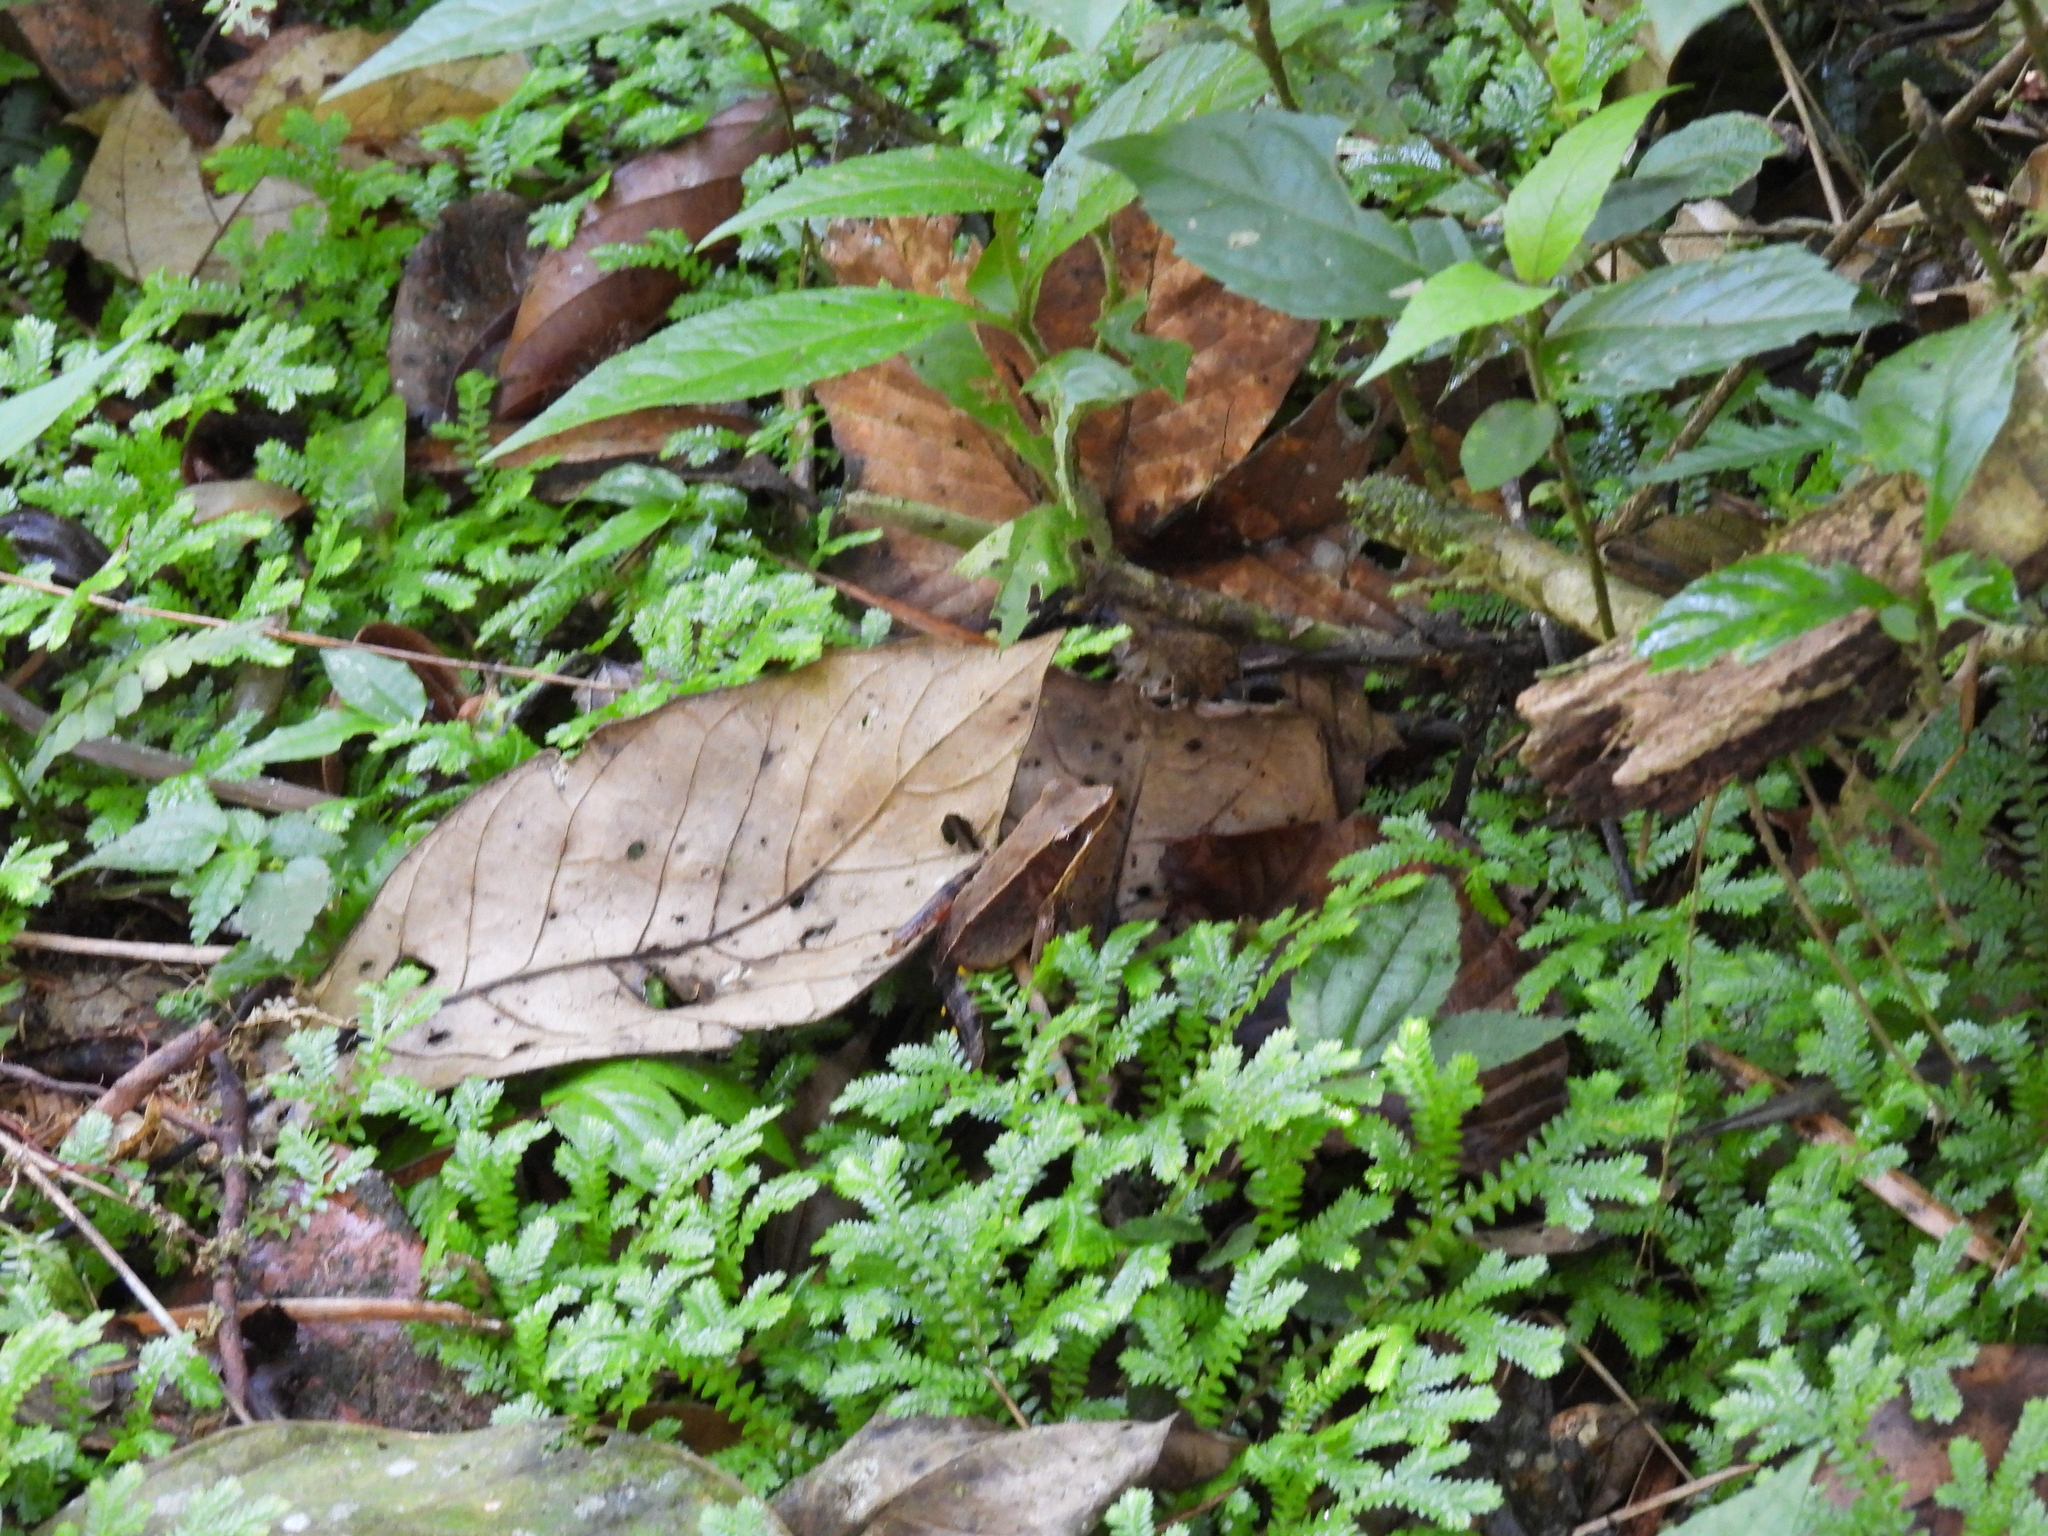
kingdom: Animalia
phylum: Chordata
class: Amphibia
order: Anura
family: Ranidae
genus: Lithobates
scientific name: Lithobates warszewitschii
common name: Warszewitsch's frog
